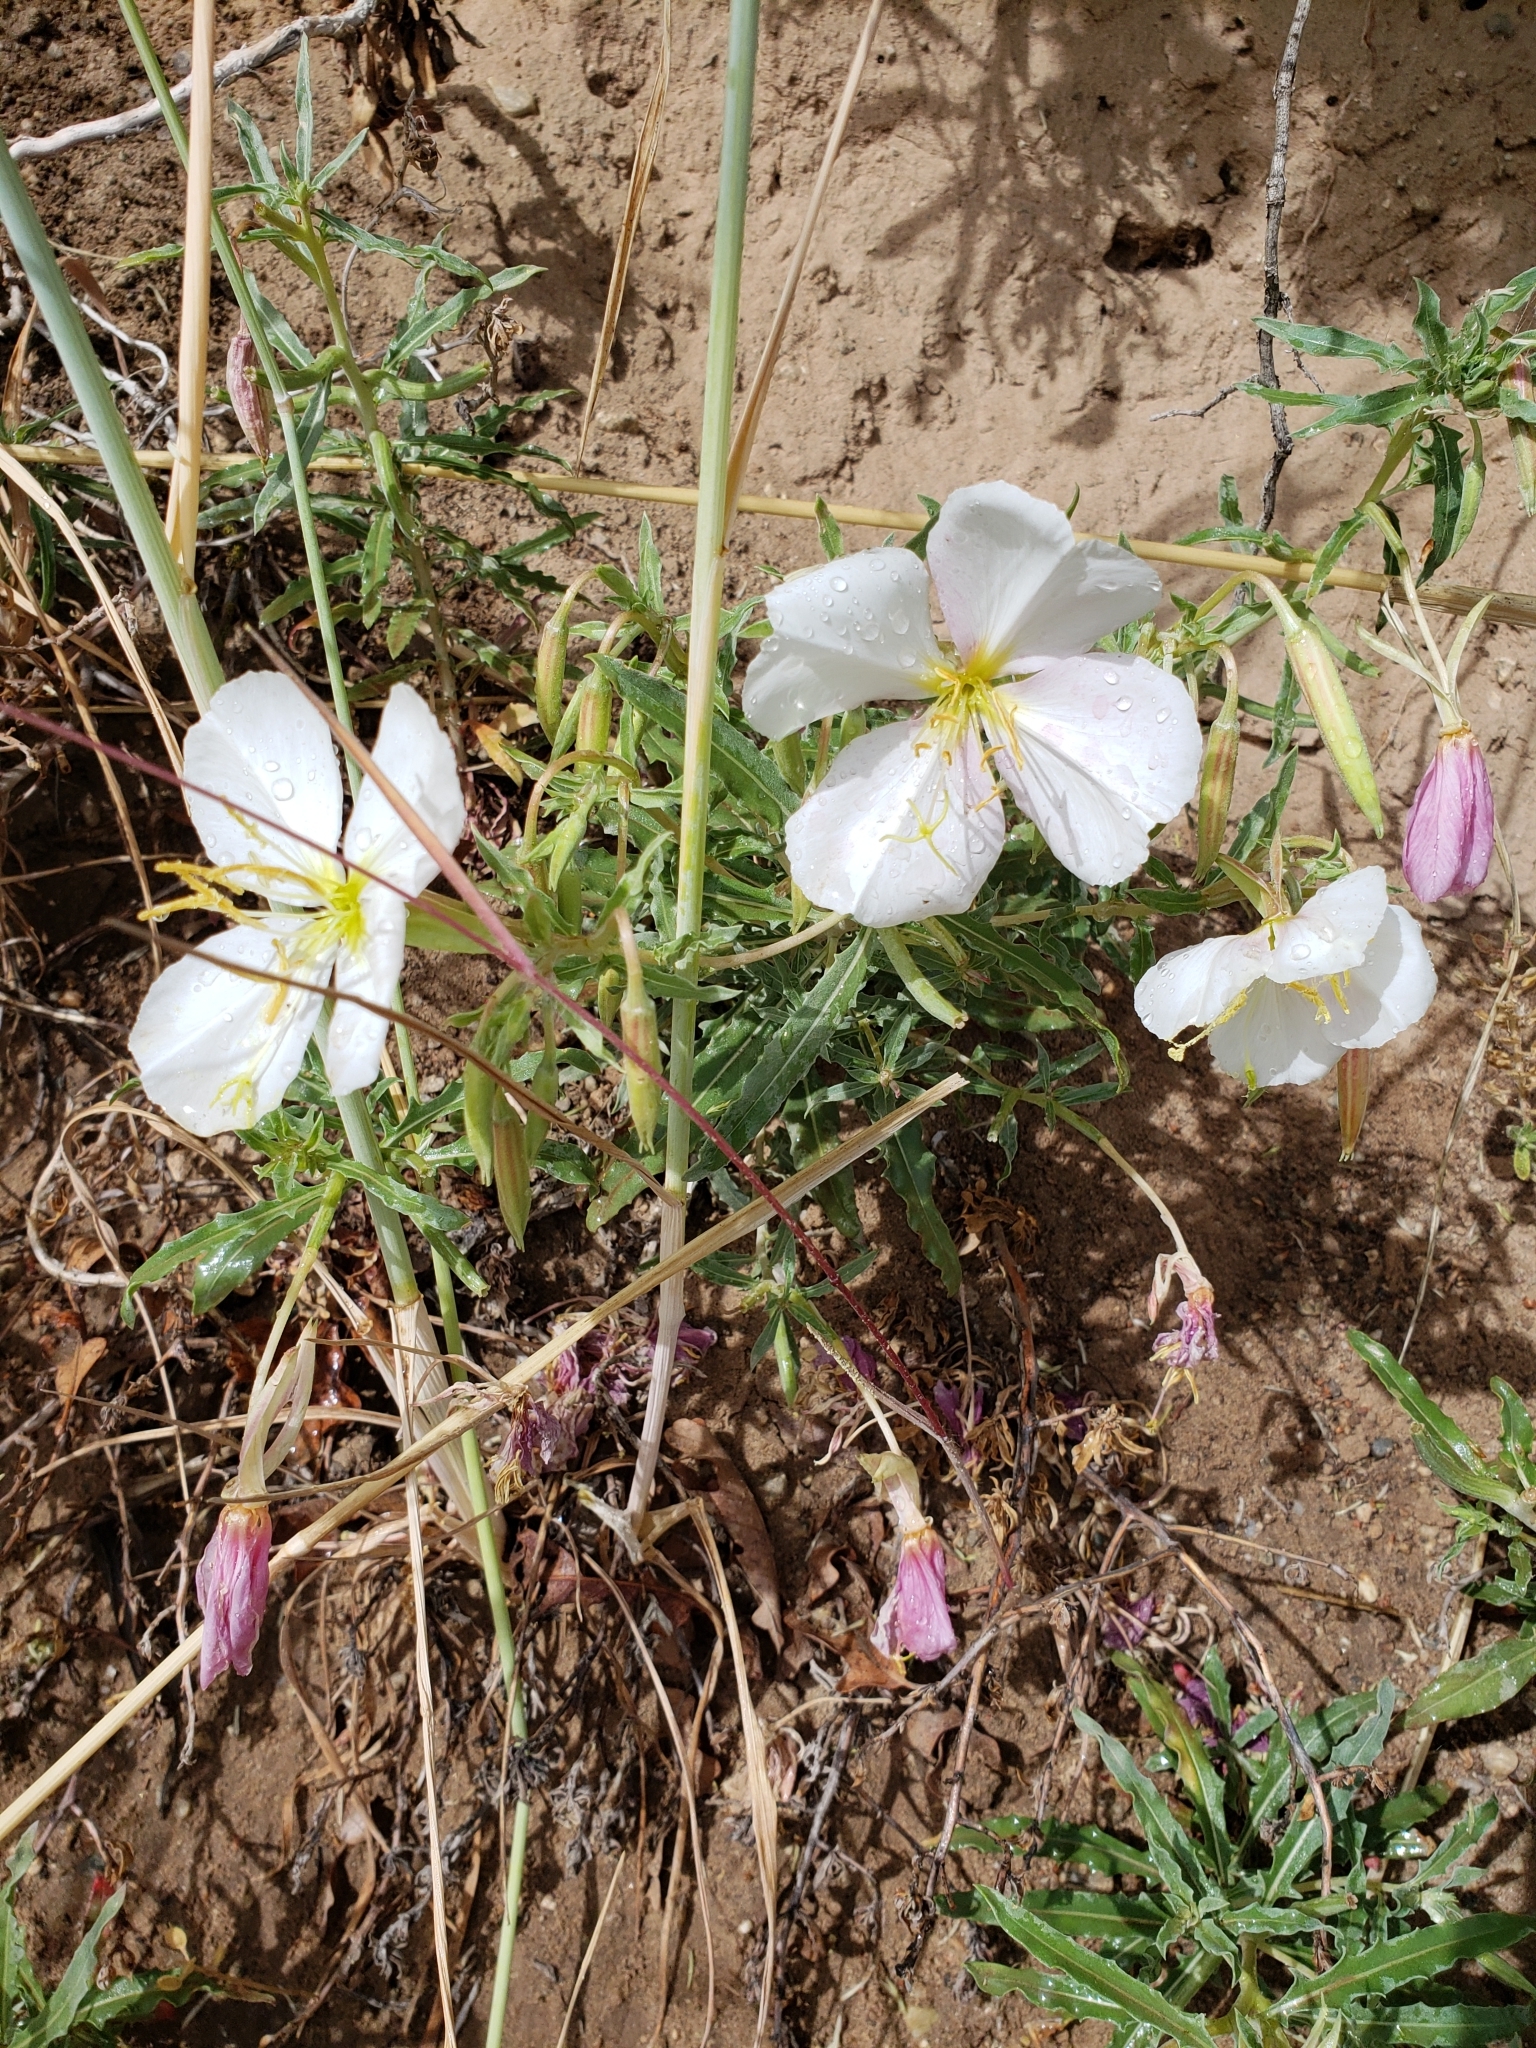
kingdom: Plantae
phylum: Tracheophyta
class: Magnoliopsida
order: Myrtales
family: Onagraceae
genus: Oenothera
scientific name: Oenothera pallida
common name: Pale evening-primrose
